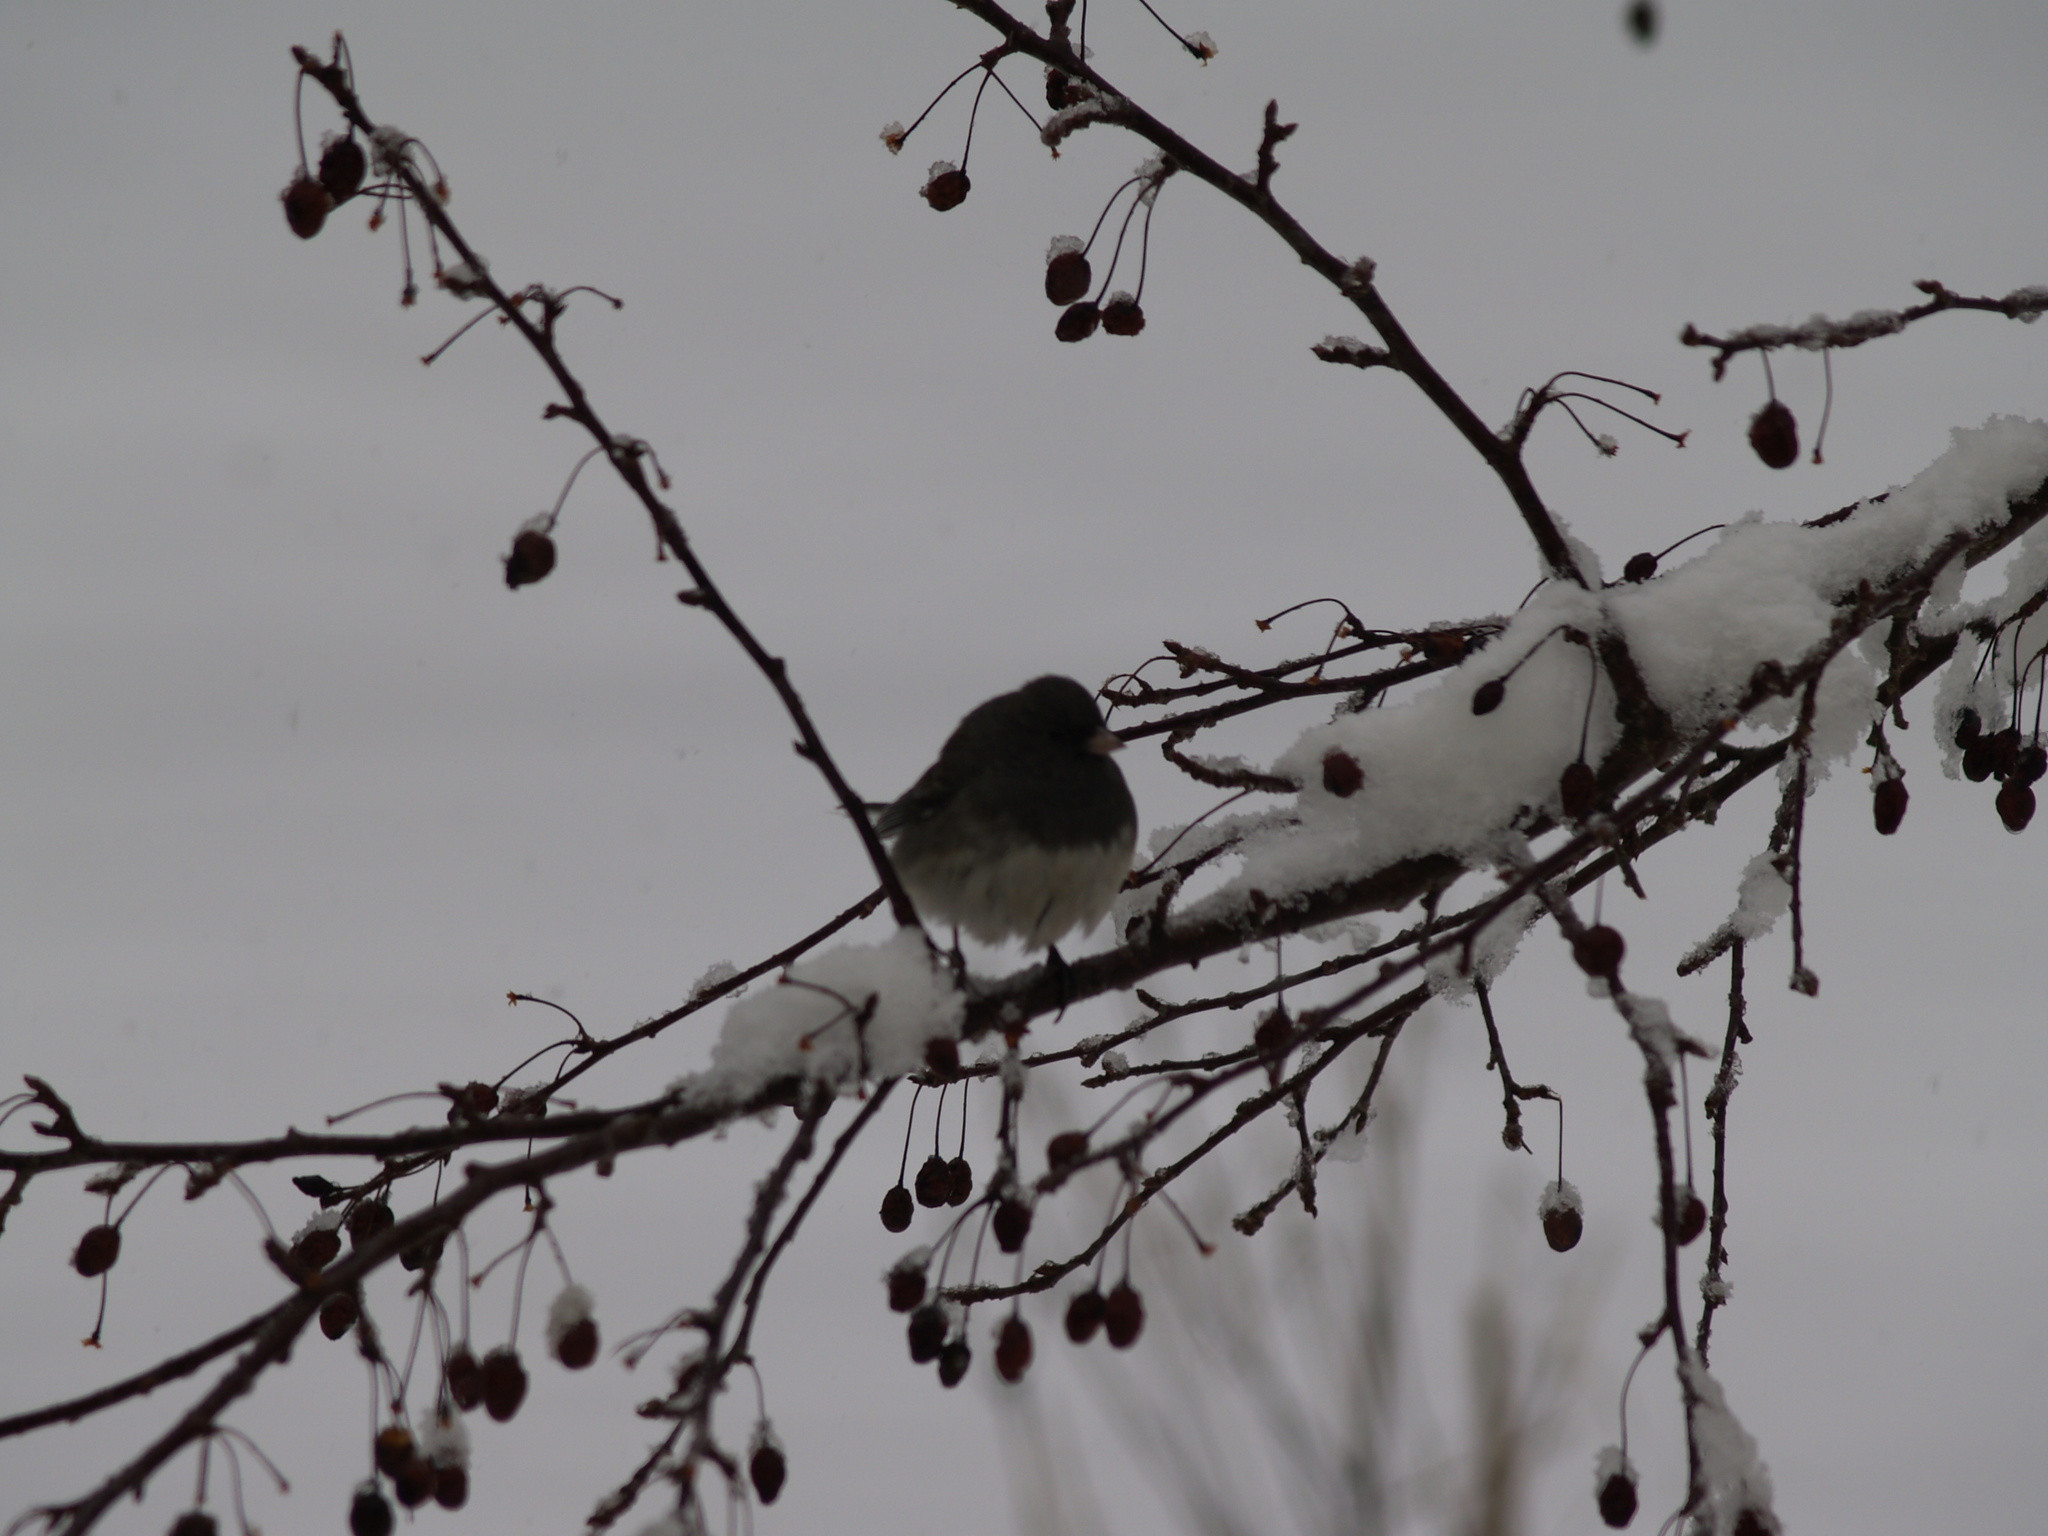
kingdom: Animalia
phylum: Chordata
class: Aves
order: Passeriformes
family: Passerellidae
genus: Junco
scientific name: Junco hyemalis
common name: Dark-eyed junco
